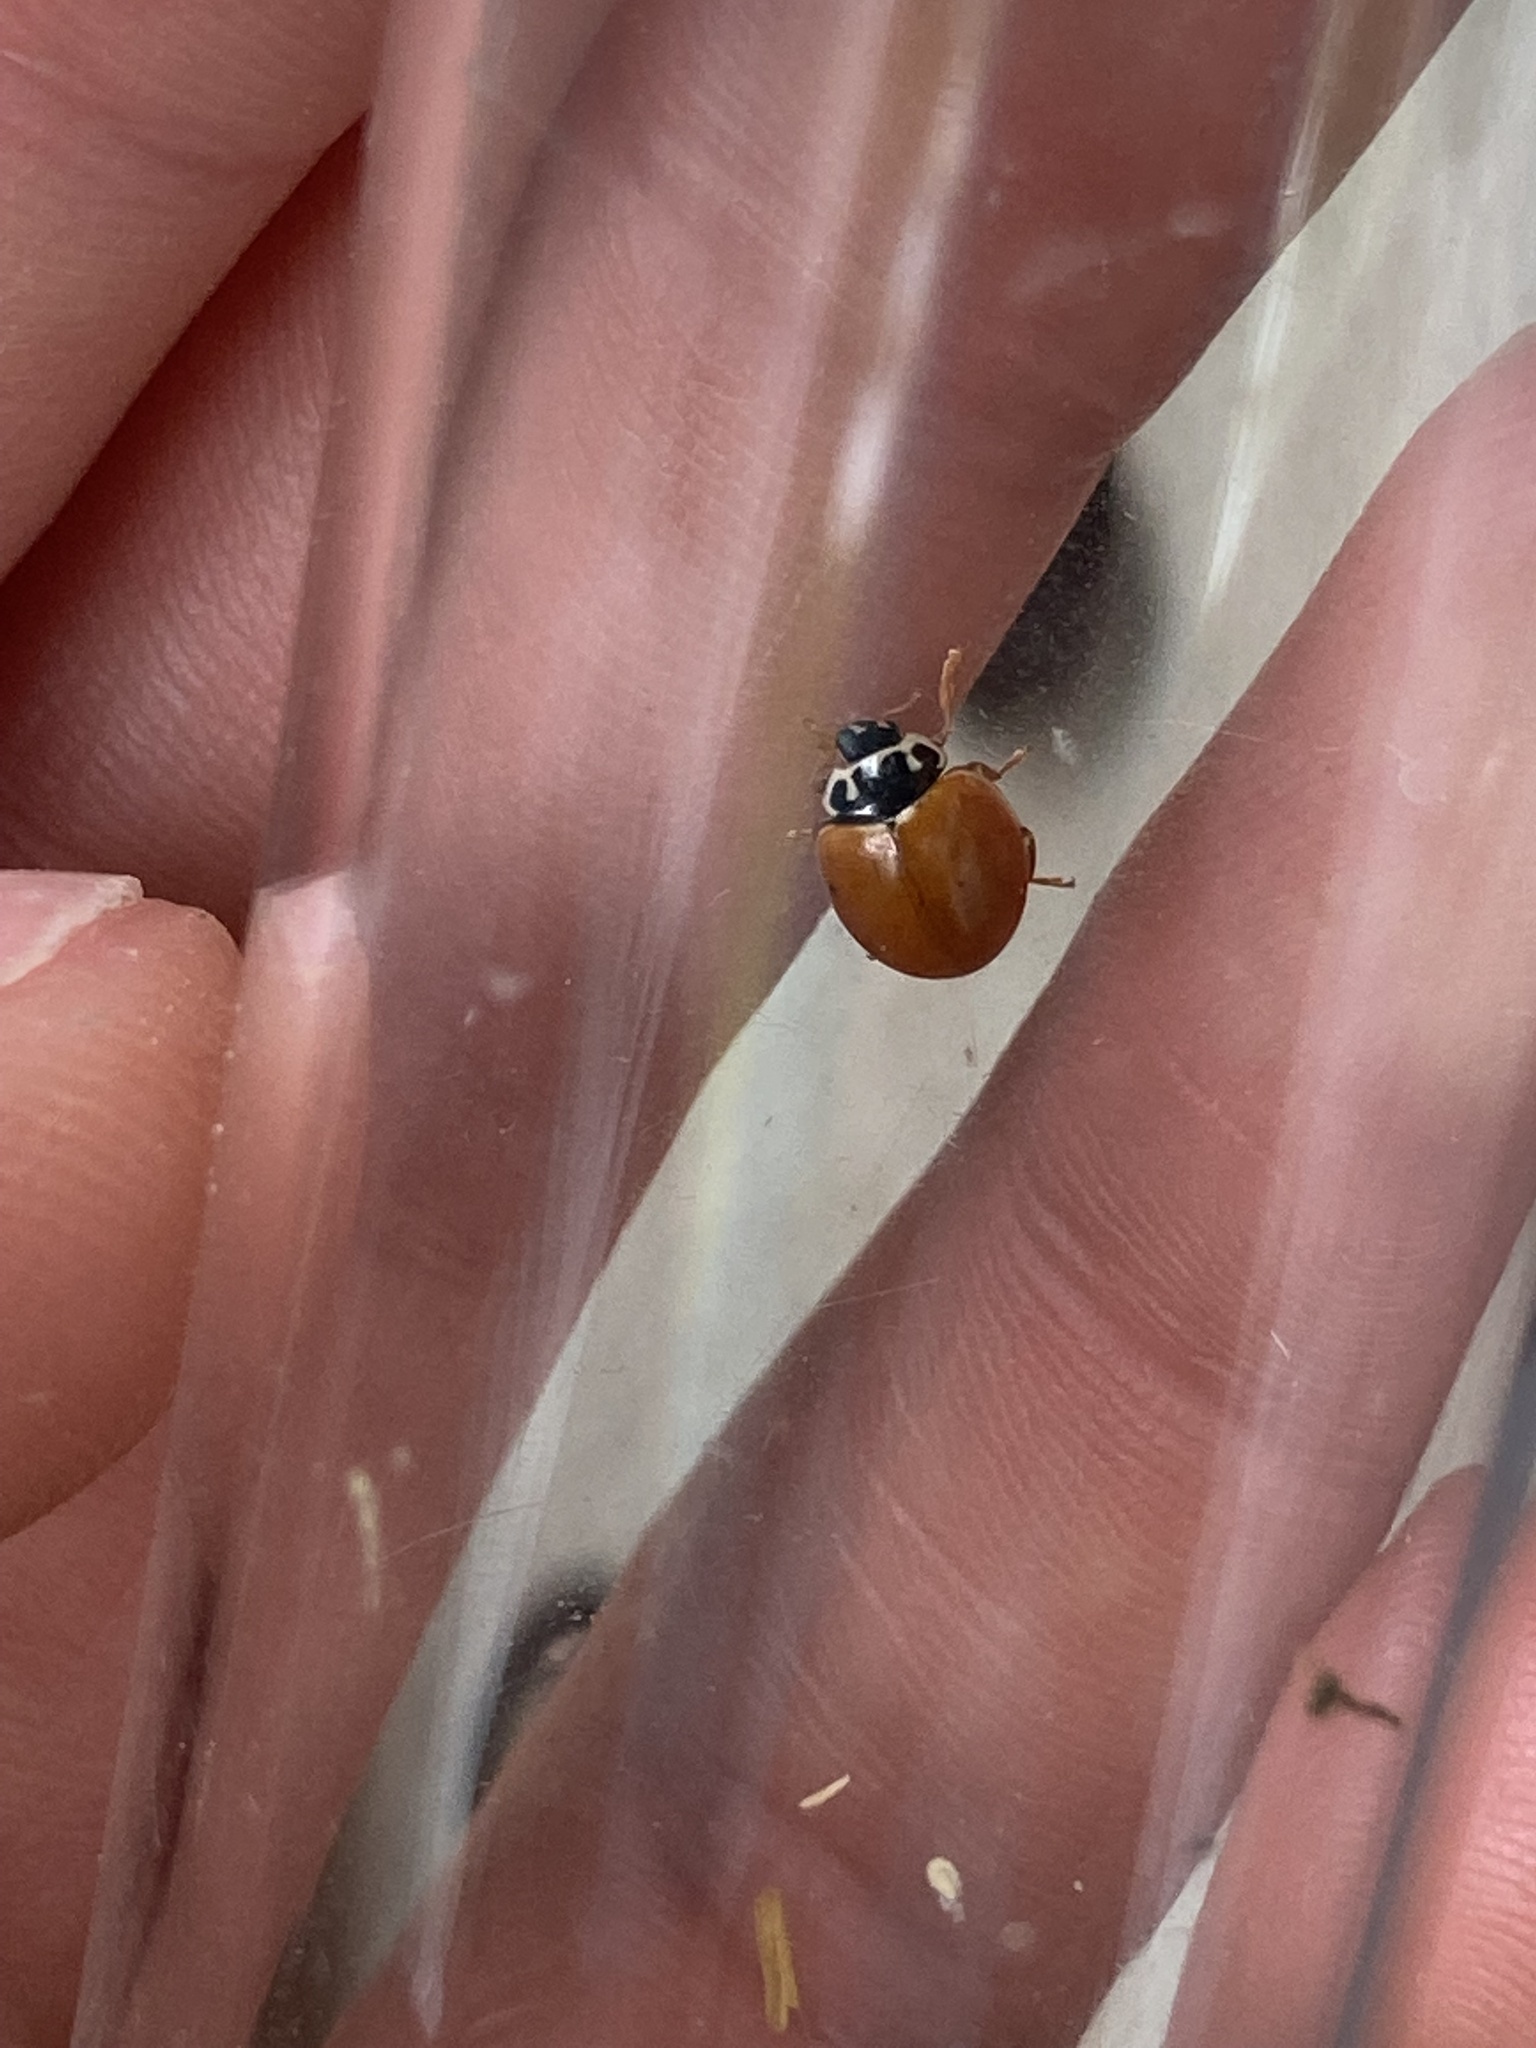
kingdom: Animalia
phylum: Arthropoda
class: Insecta
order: Coleoptera
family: Coccinellidae
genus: Cycloneda
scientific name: Cycloneda munda
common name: Polished lady beetle
